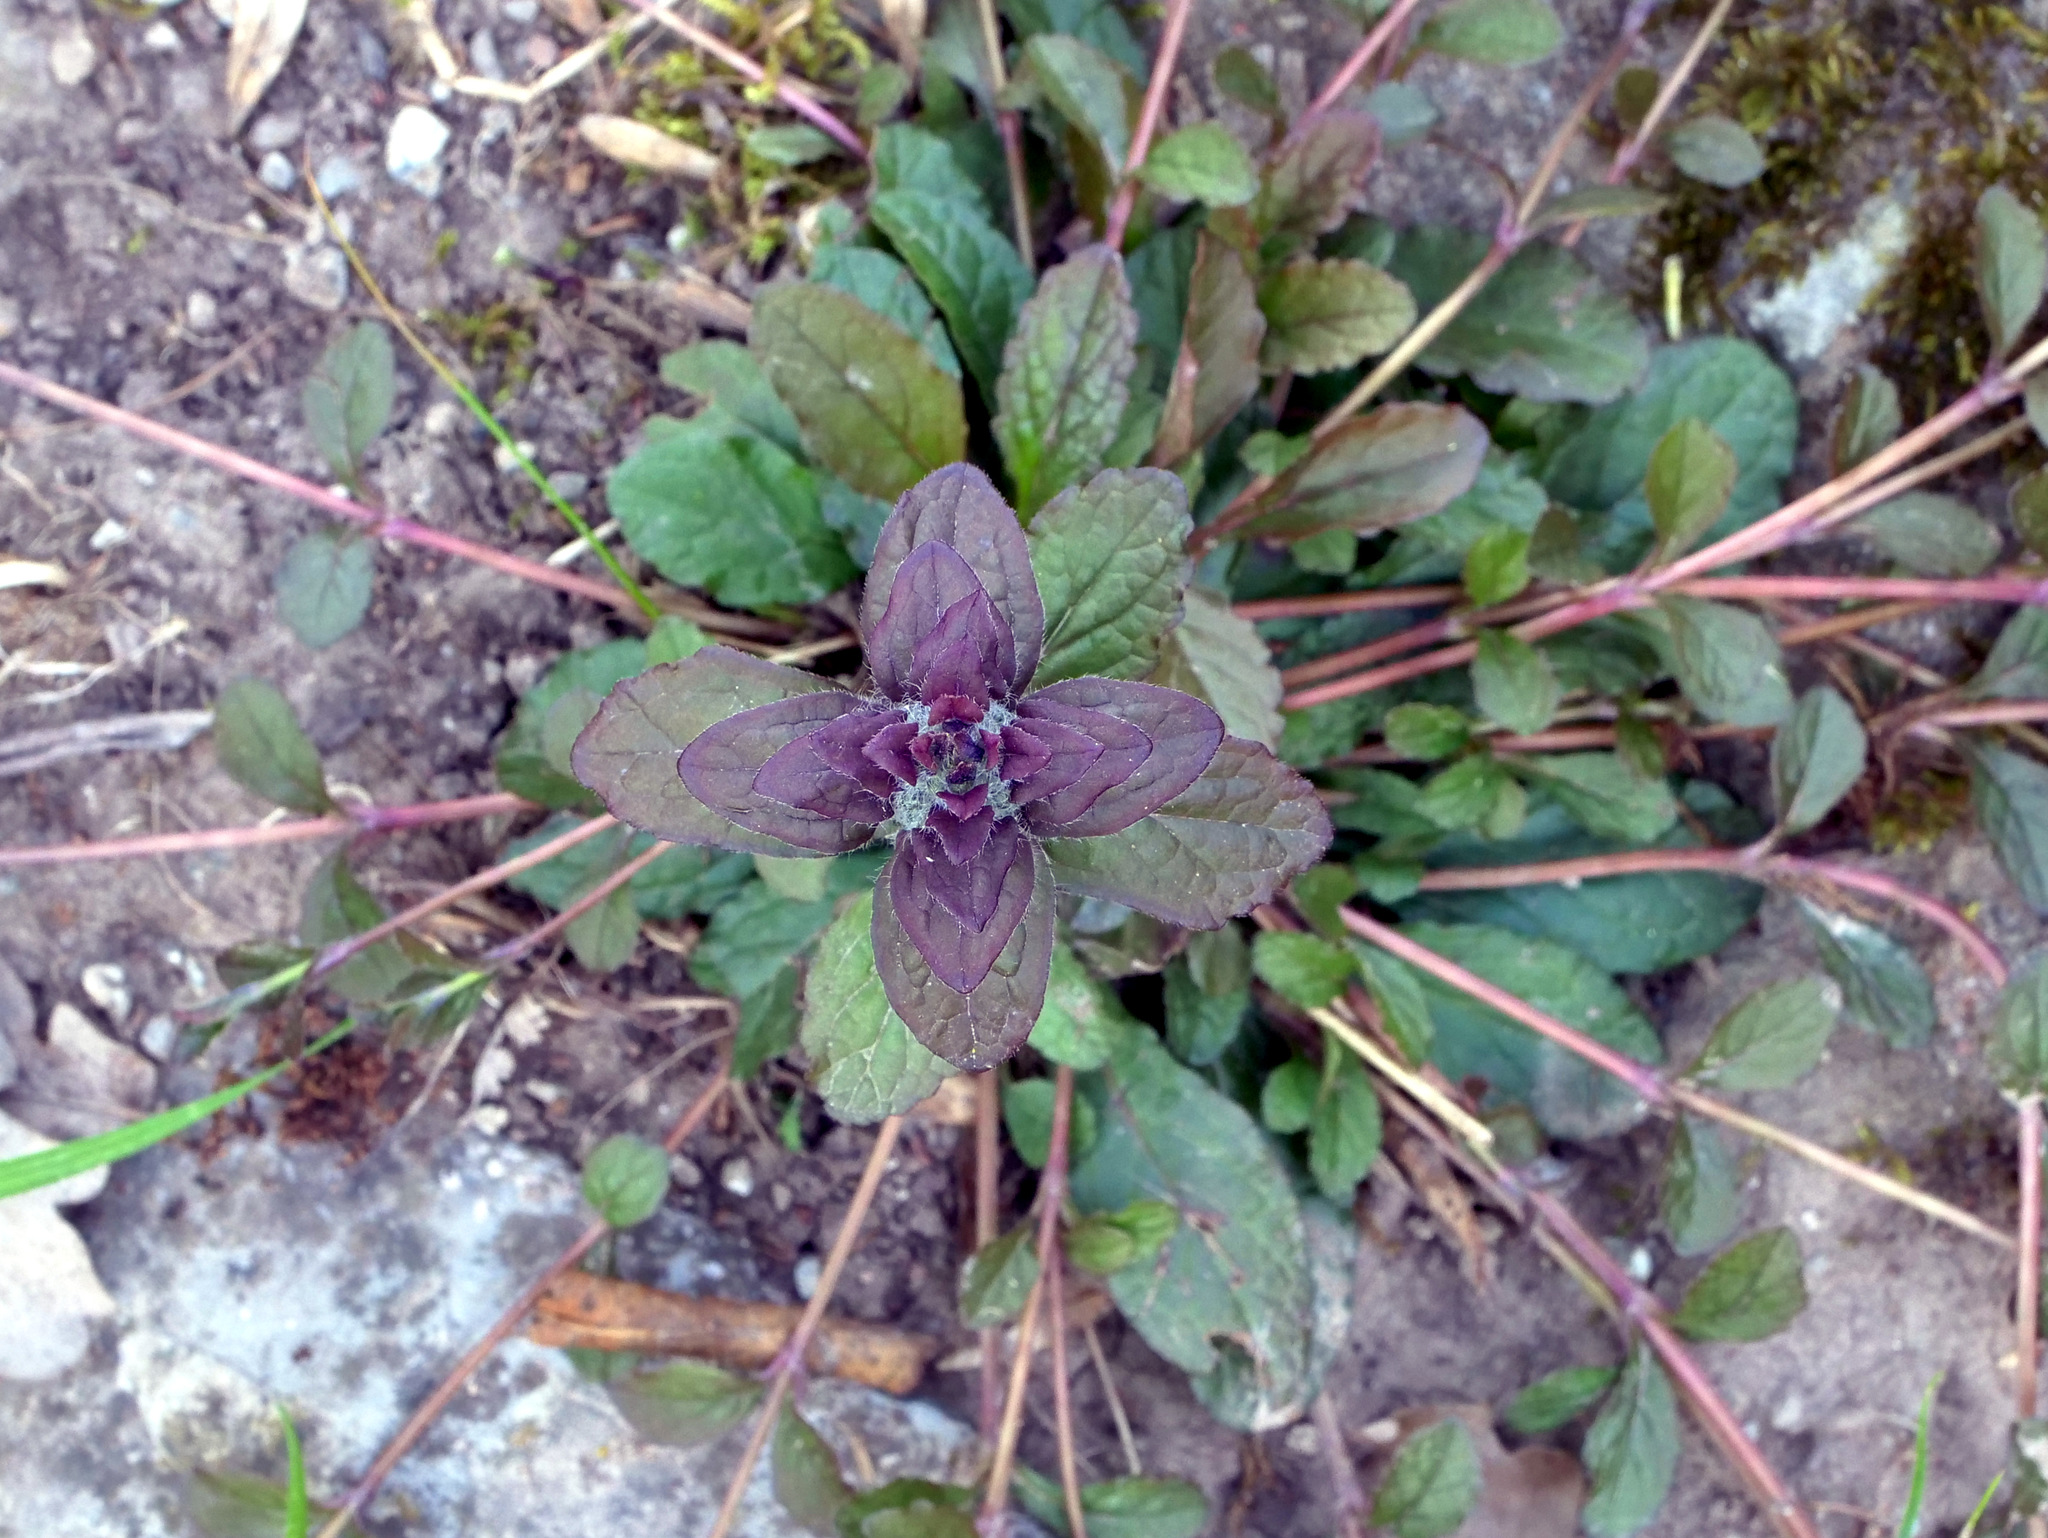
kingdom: Plantae
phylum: Tracheophyta
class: Magnoliopsida
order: Lamiales
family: Lamiaceae
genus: Ajuga
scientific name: Ajuga reptans
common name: Bugle
